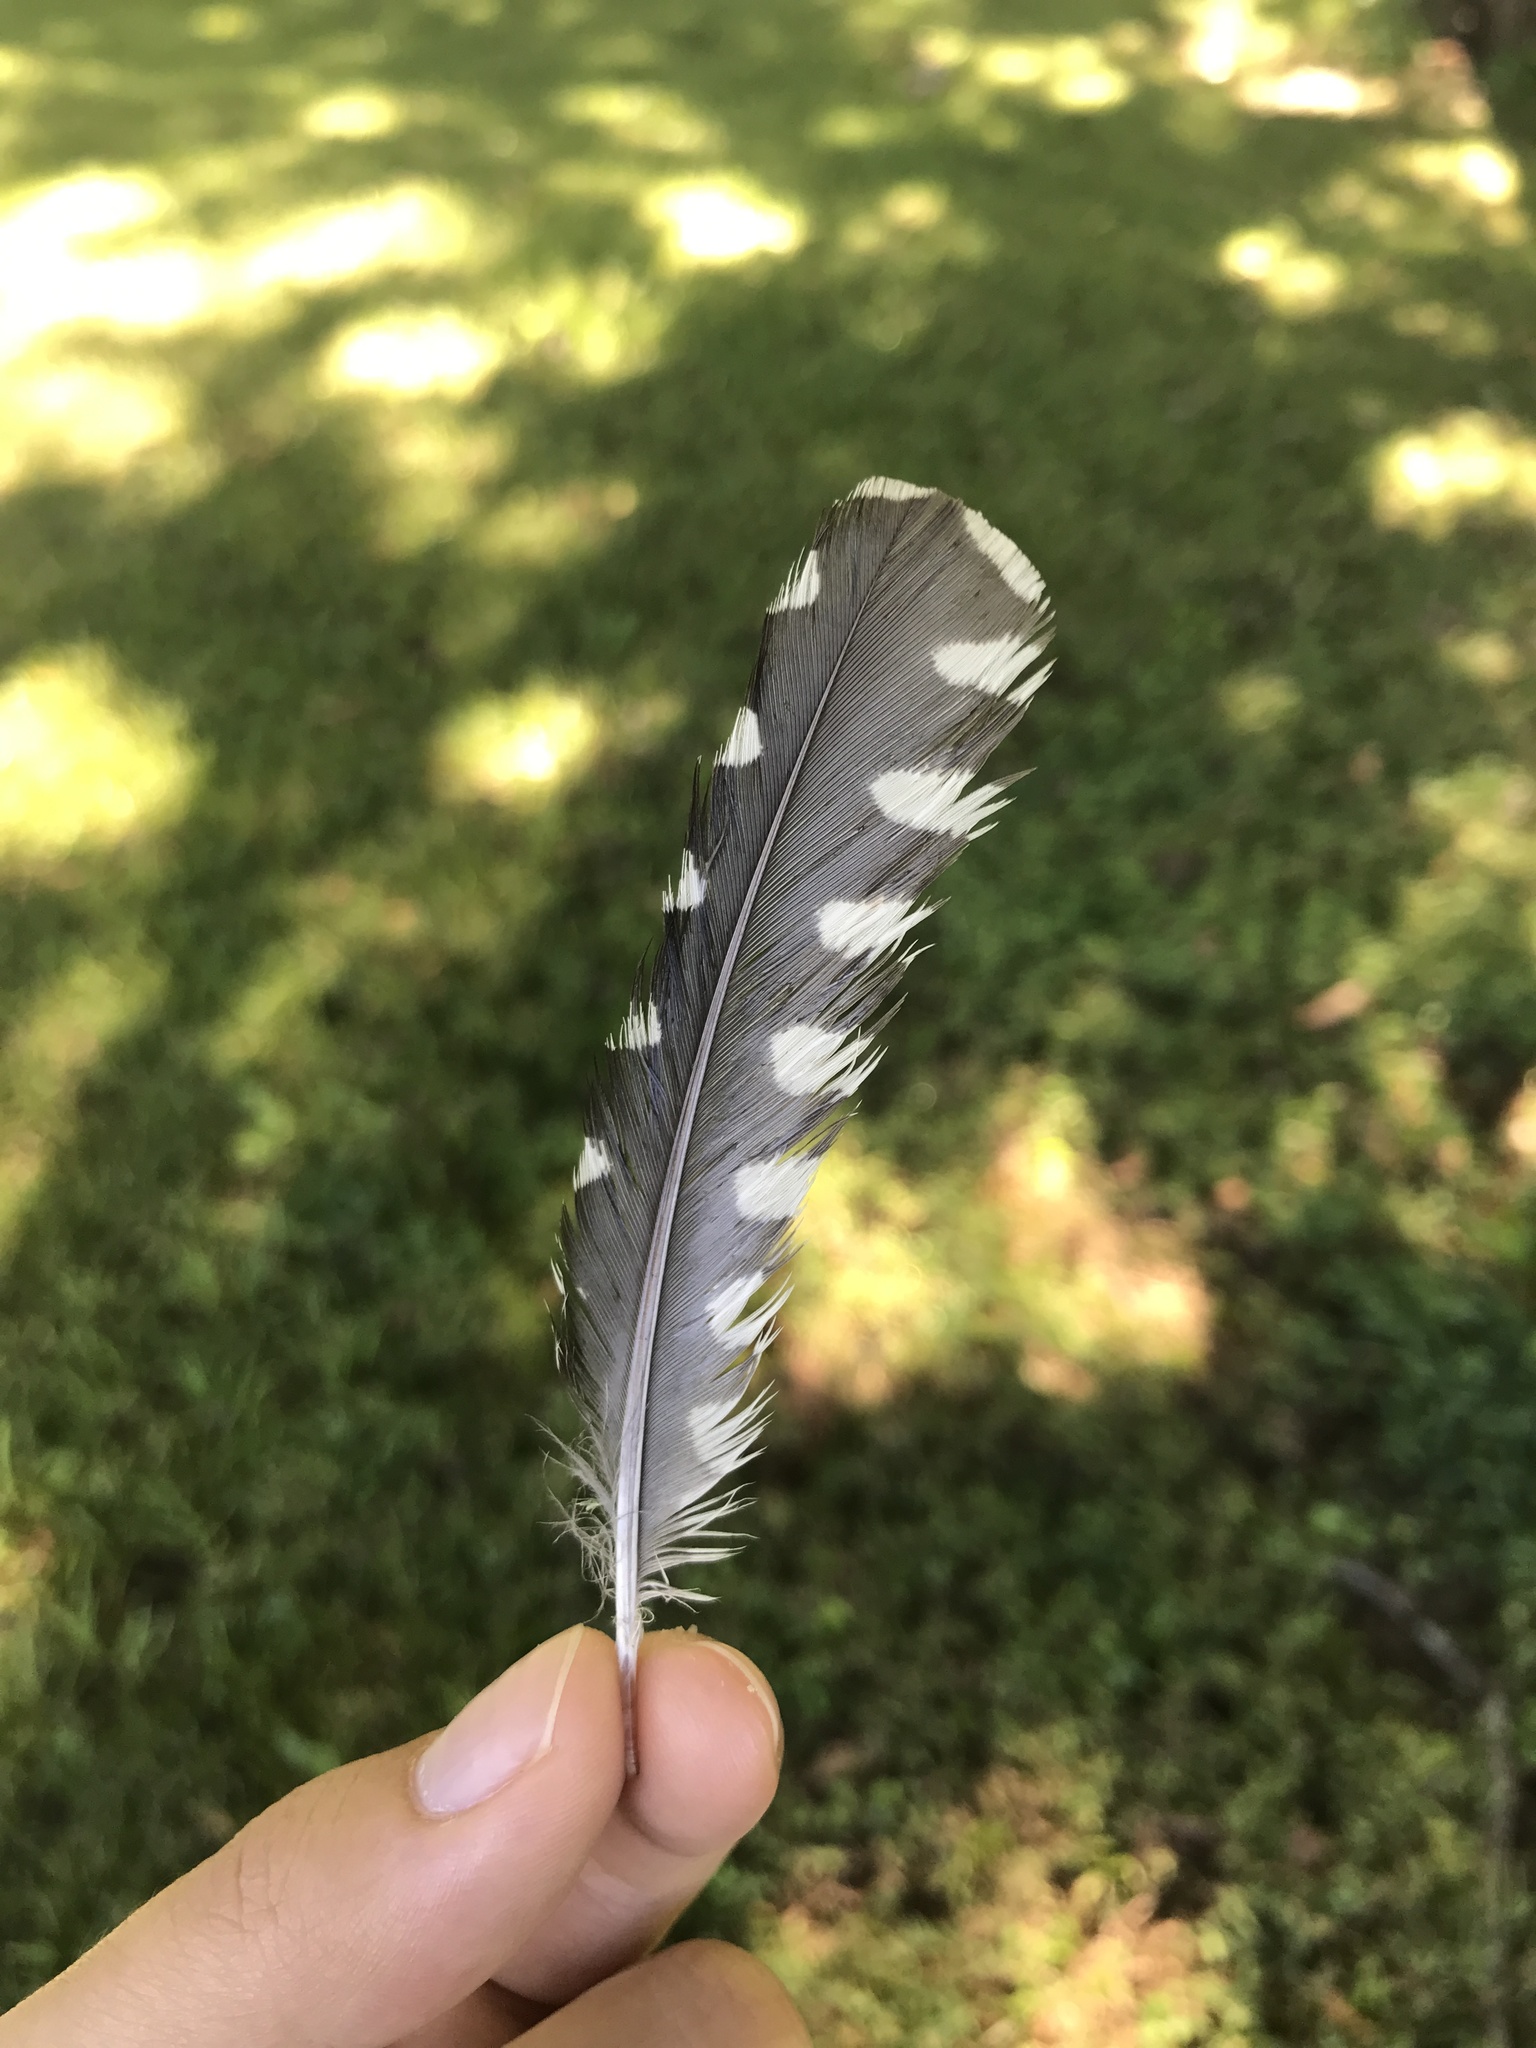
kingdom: Animalia
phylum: Chordata
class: Aves
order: Piciformes
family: Picidae
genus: Melanerpes
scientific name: Melanerpes carolinus
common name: Red-bellied woodpecker
